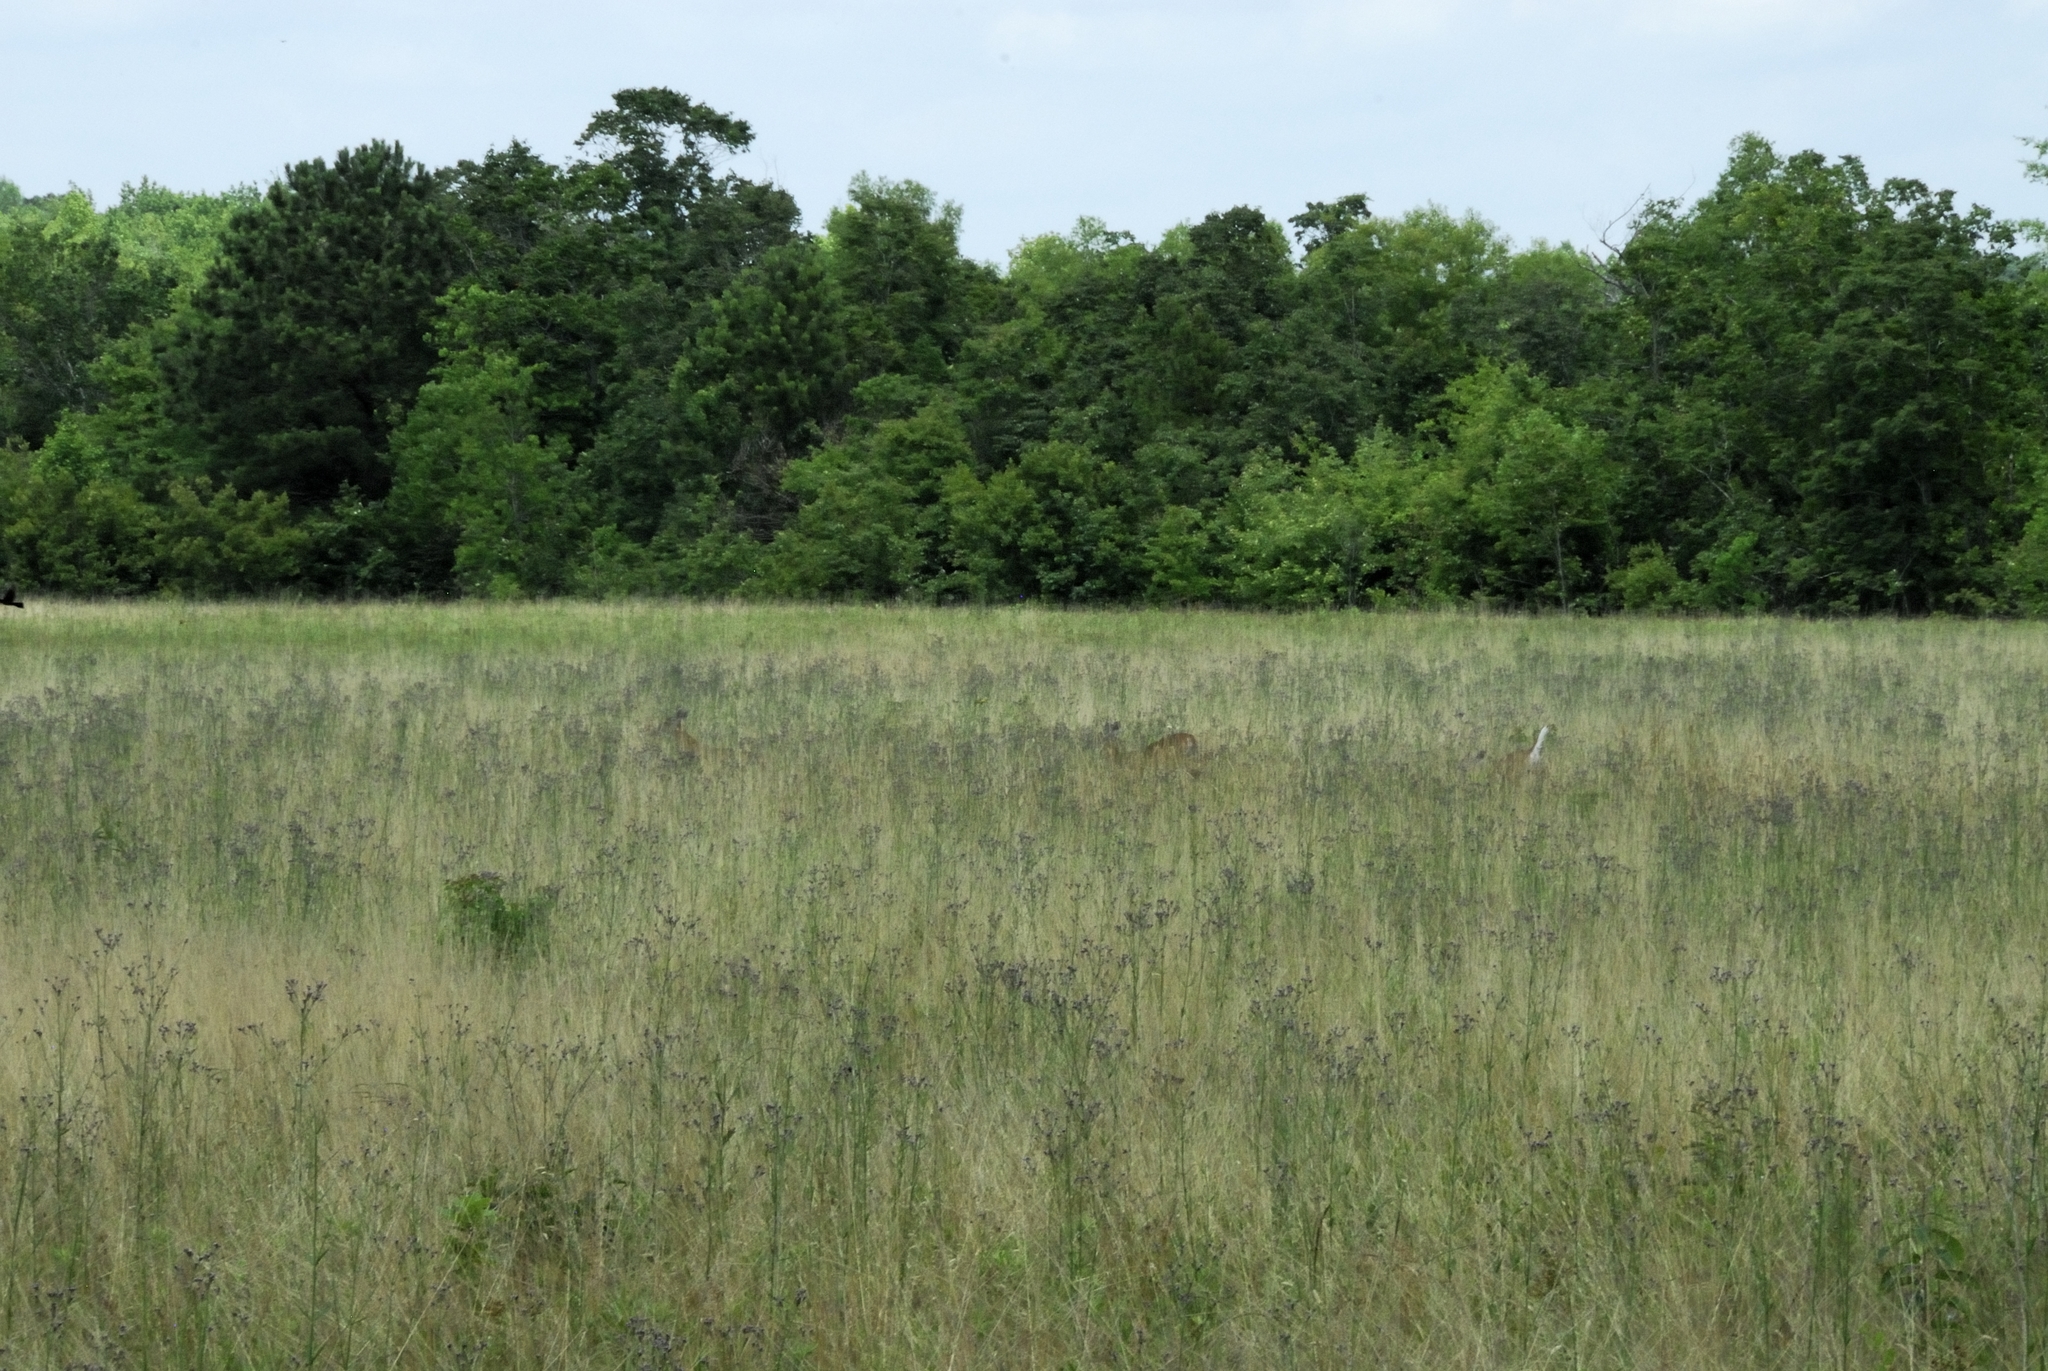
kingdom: Animalia
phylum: Chordata
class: Mammalia
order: Artiodactyla
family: Cervidae
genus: Odocoileus
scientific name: Odocoileus virginianus
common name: White-tailed deer
